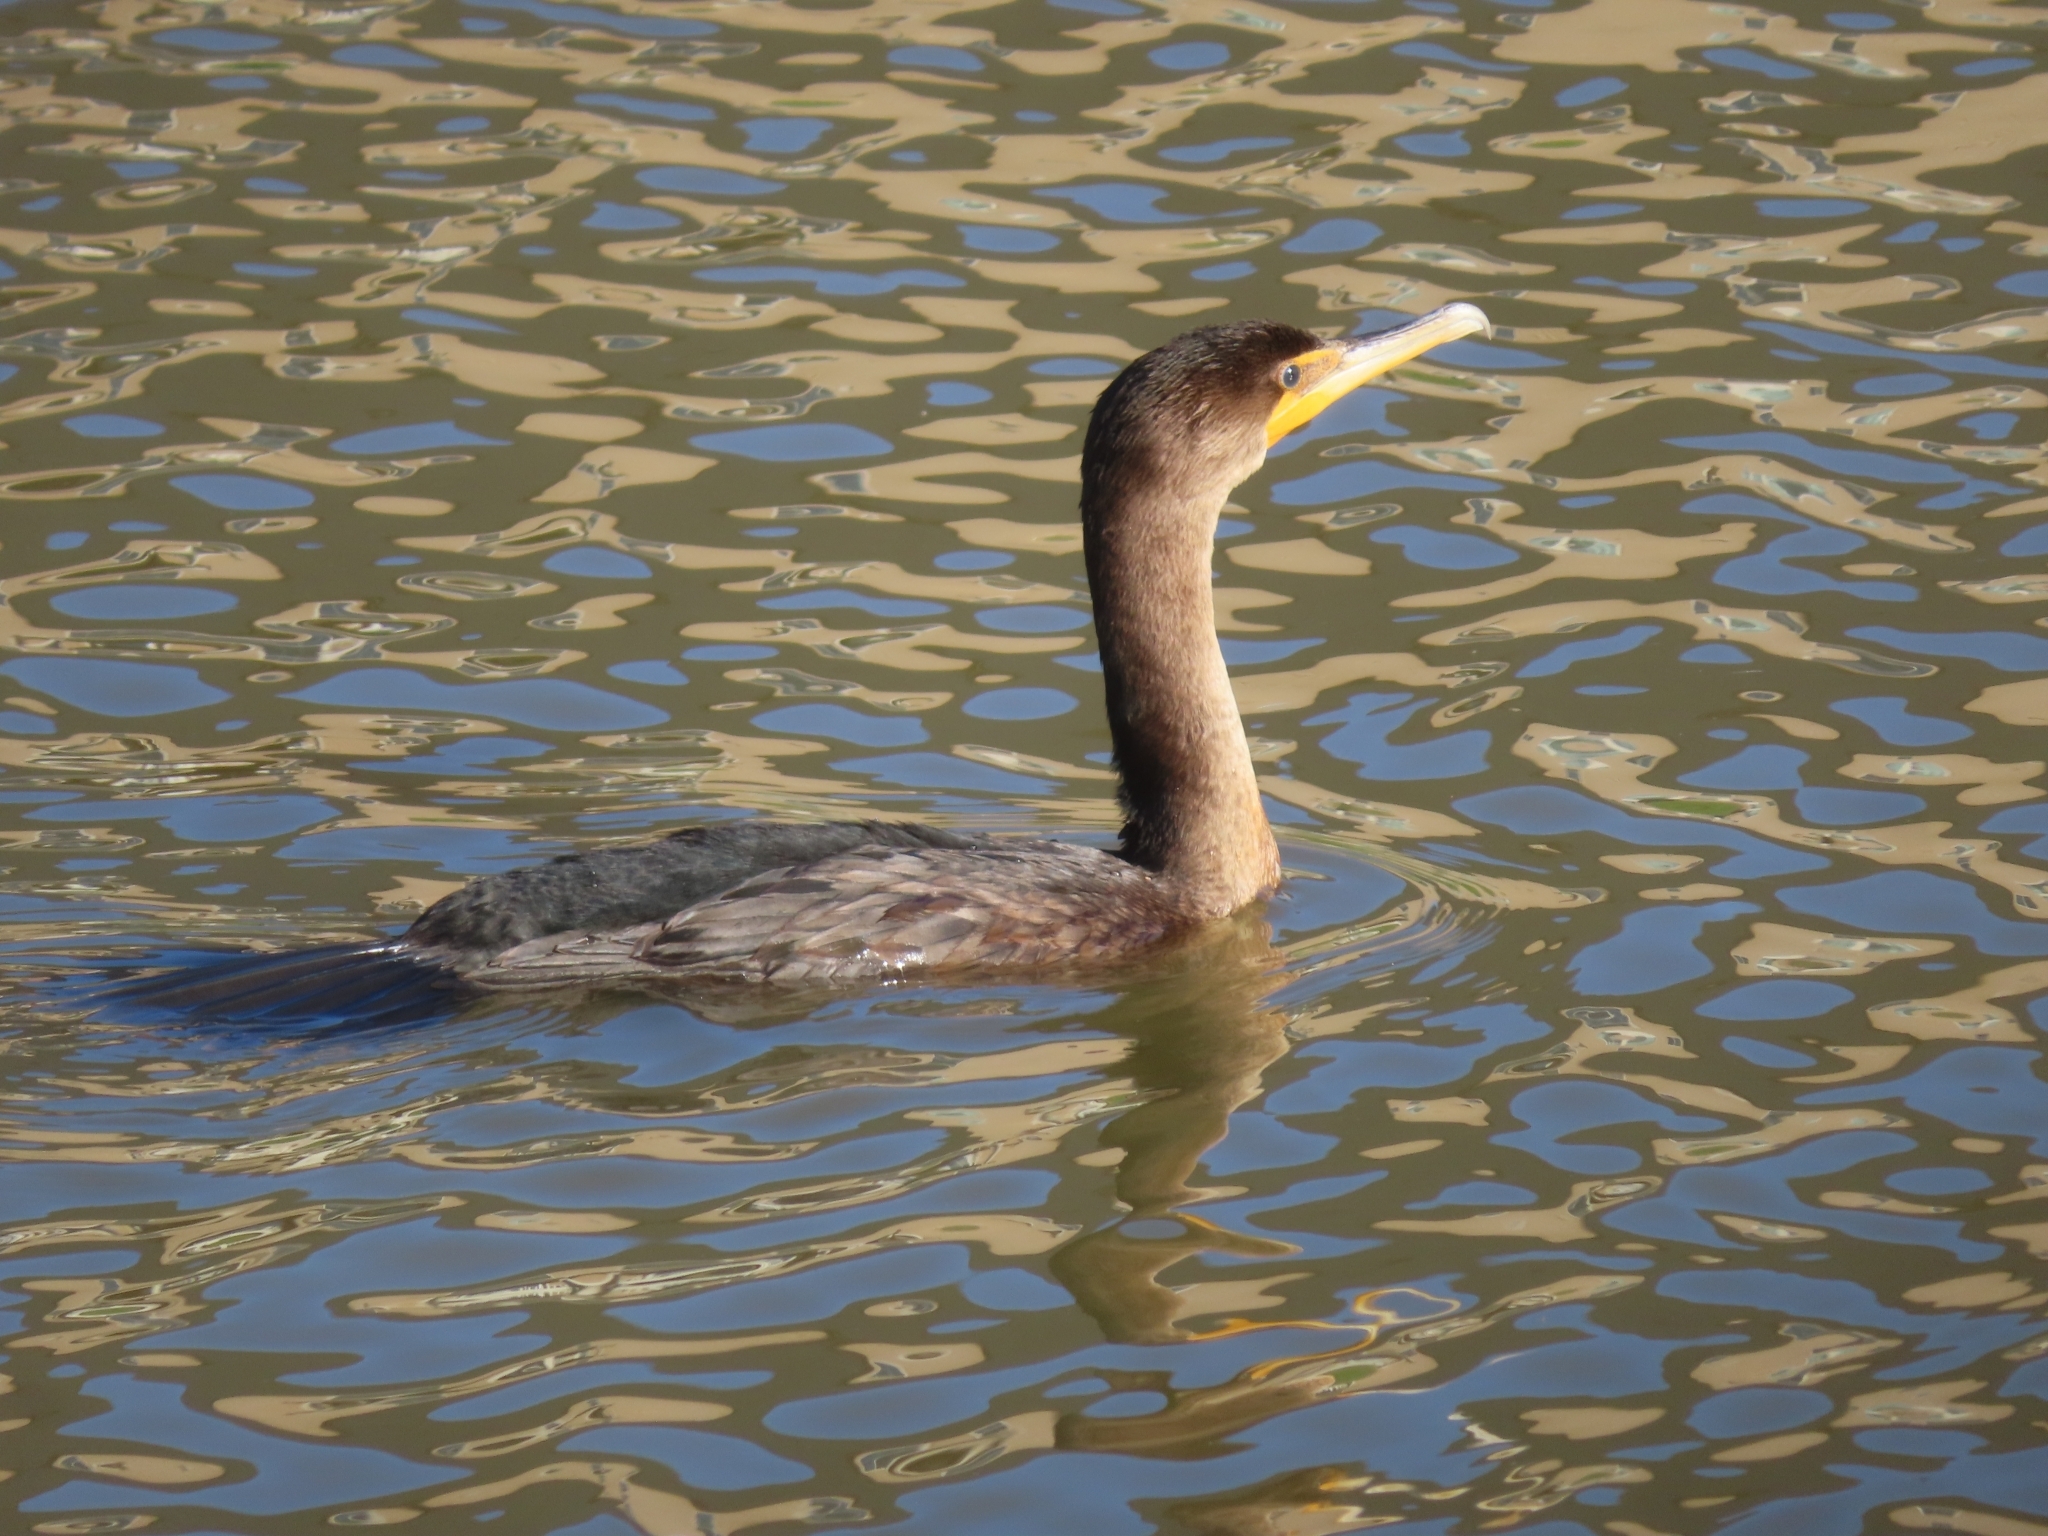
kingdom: Animalia
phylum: Chordata
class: Aves
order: Suliformes
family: Phalacrocoracidae
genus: Phalacrocorax
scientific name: Phalacrocorax auritus
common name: Double-crested cormorant
